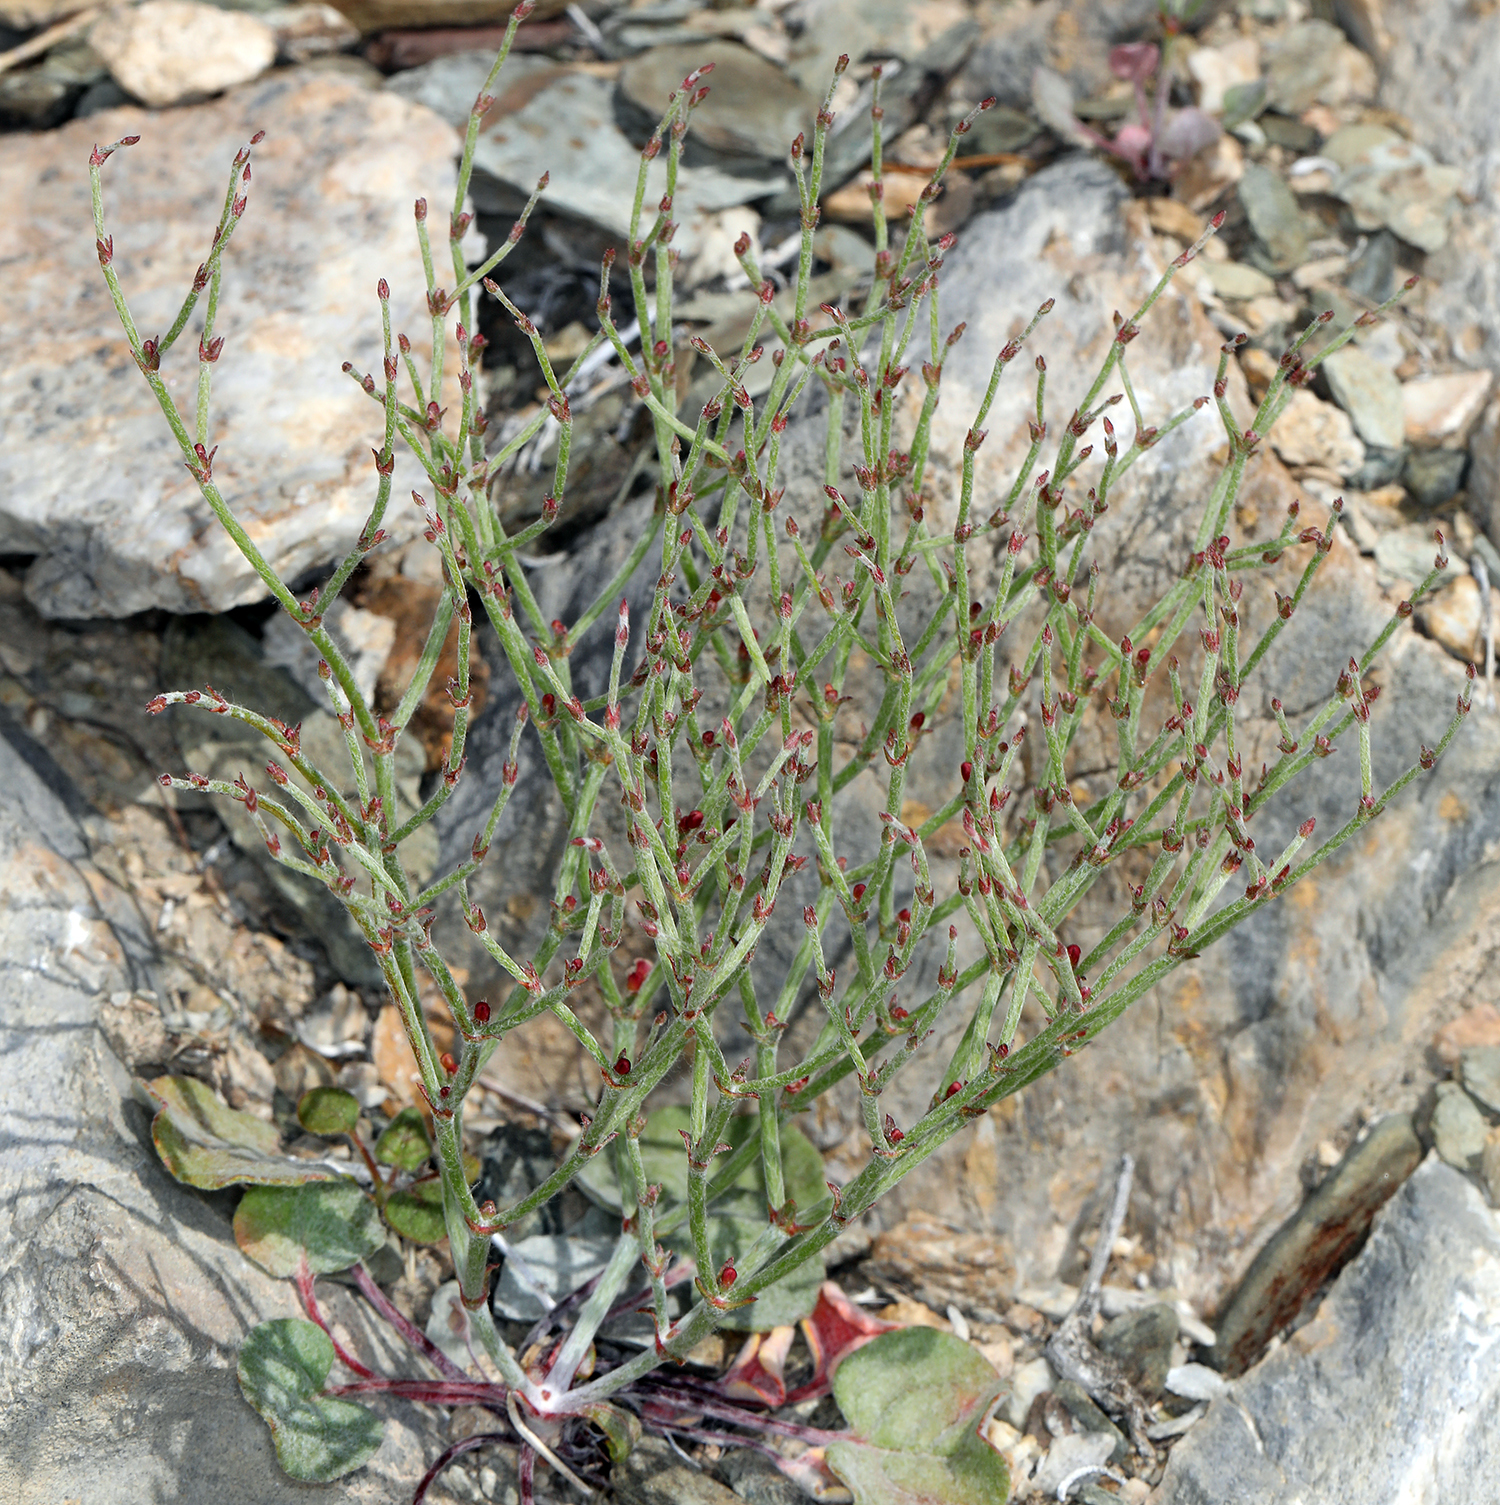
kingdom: Plantae
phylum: Tracheophyta
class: Magnoliopsida
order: Caryophyllales
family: Polygonaceae
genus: Eriogonum
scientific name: Eriogonum nidularium
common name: Bird's-nest wild buckwheat
